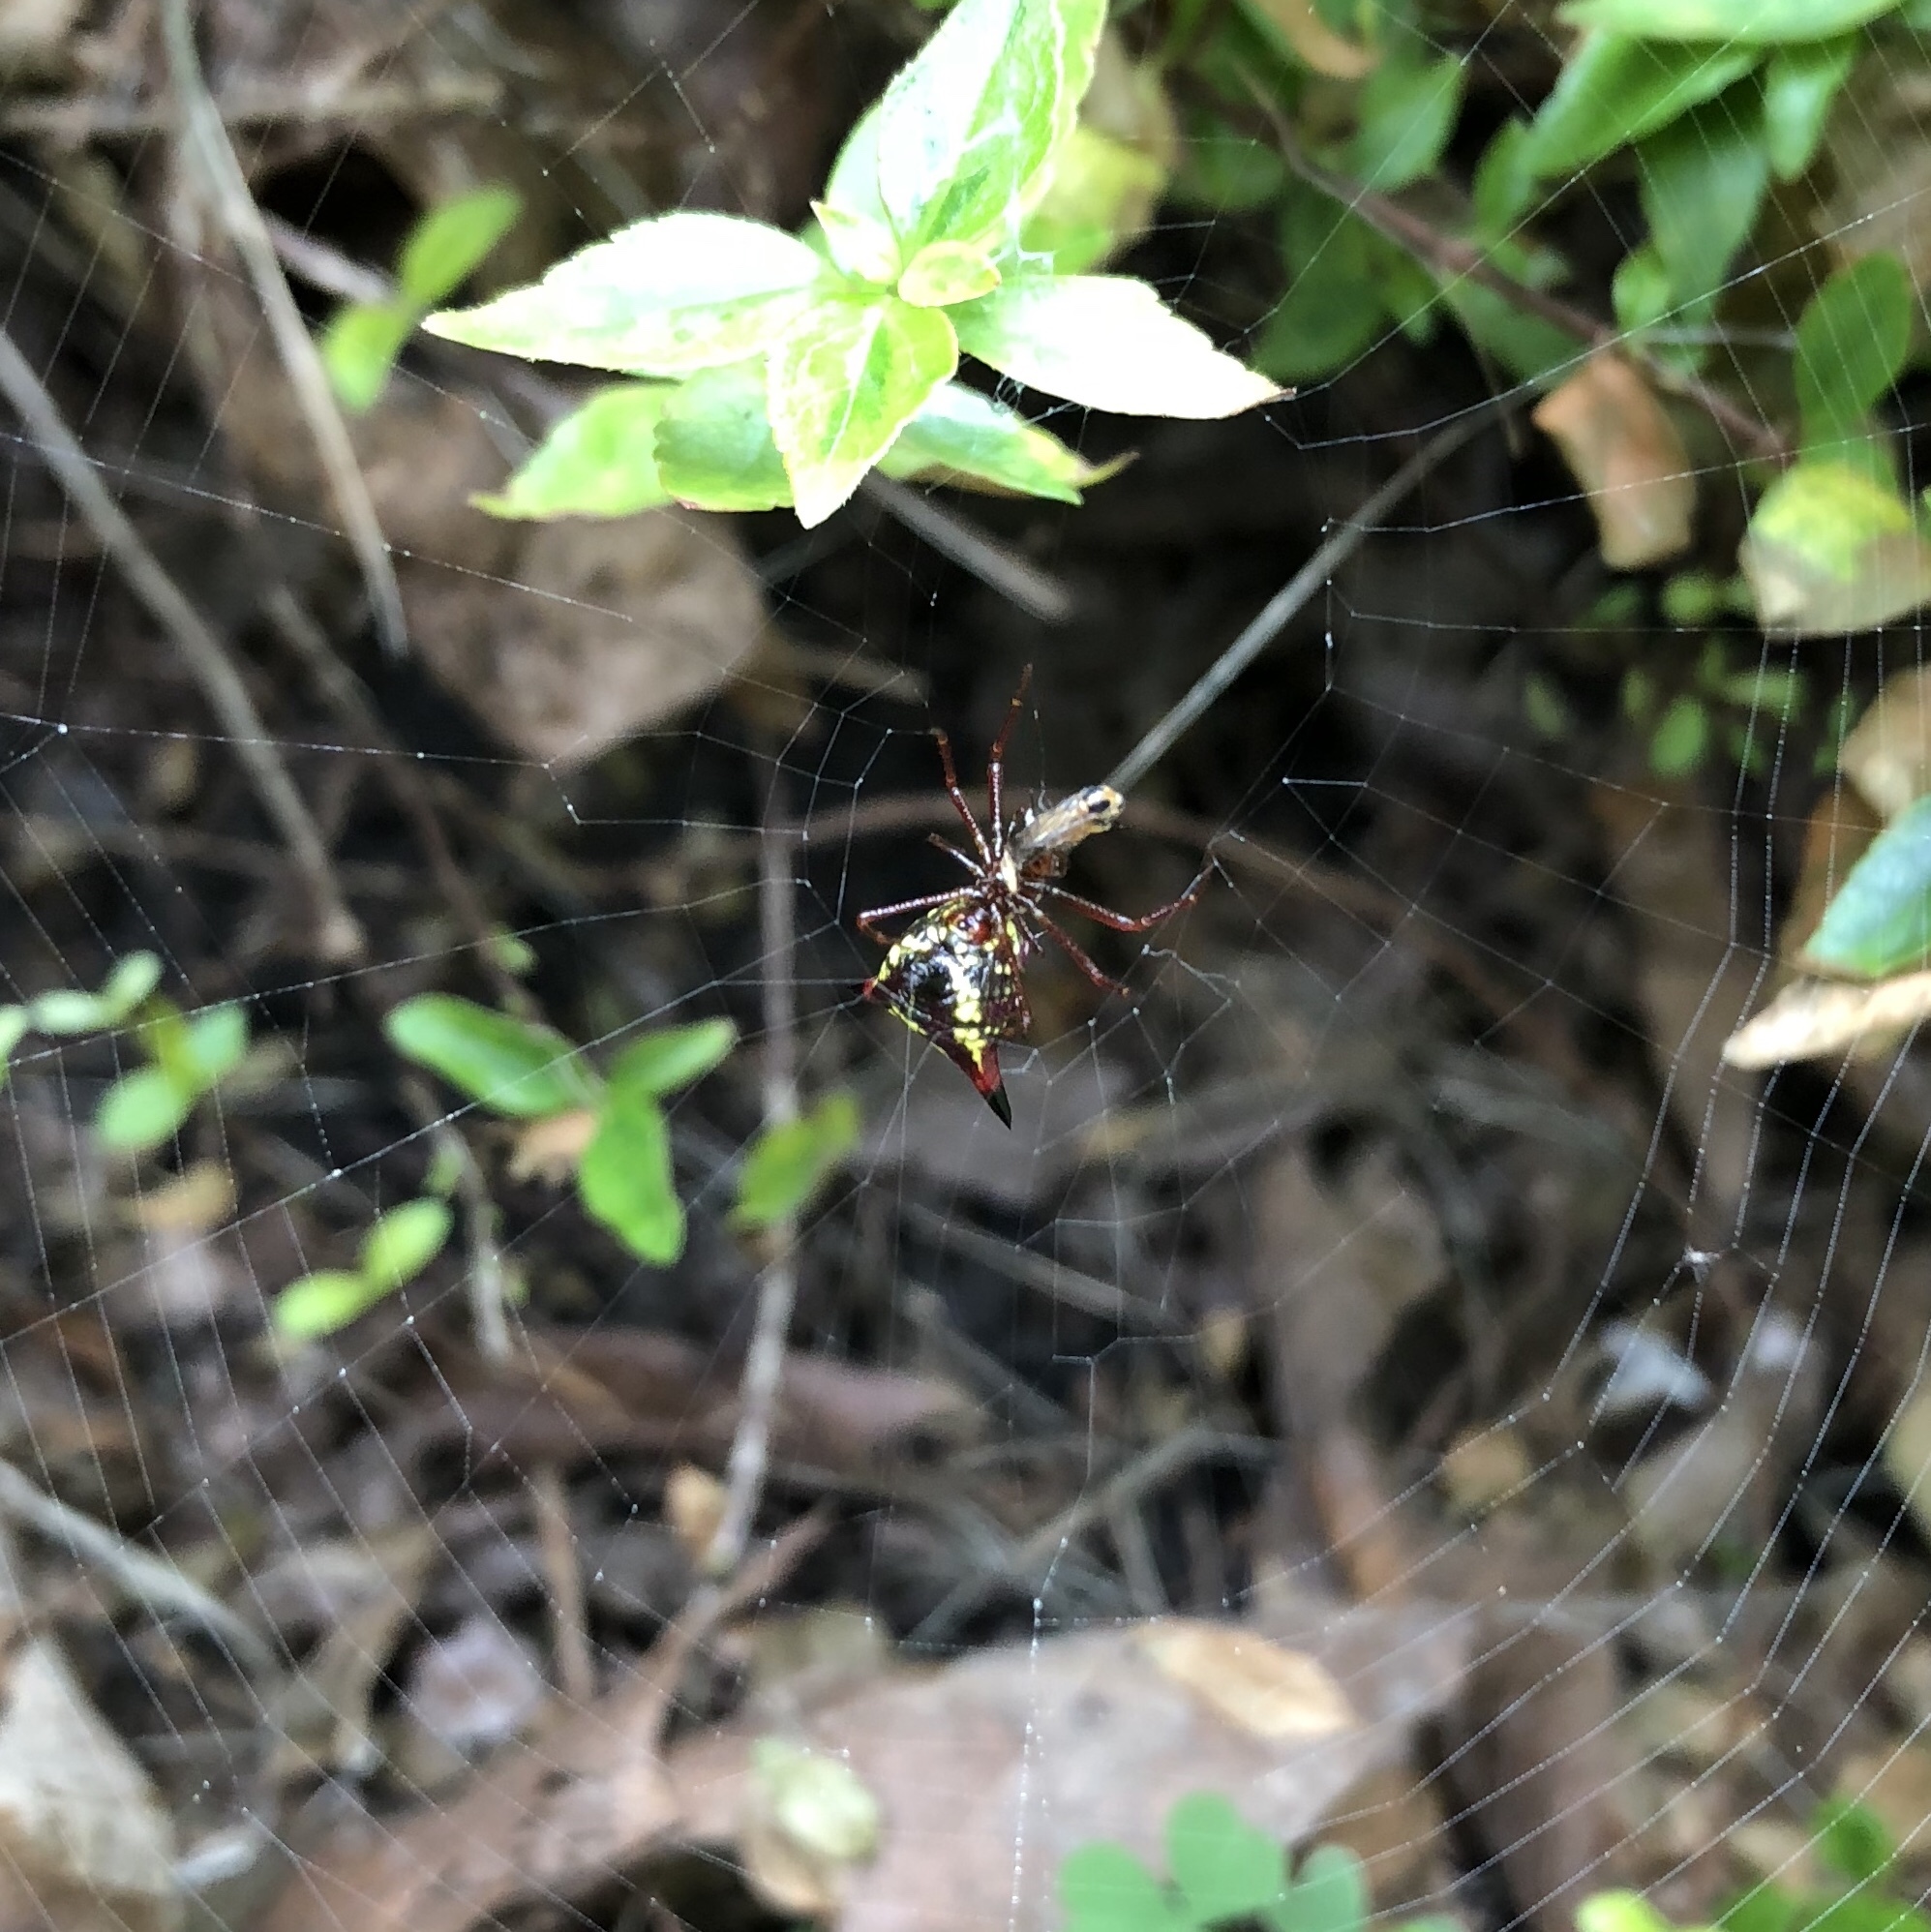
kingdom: Animalia
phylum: Arthropoda
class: Arachnida
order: Araneae
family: Araneidae
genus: Micrathena
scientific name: Micrathena sagittata
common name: Orb weavers
